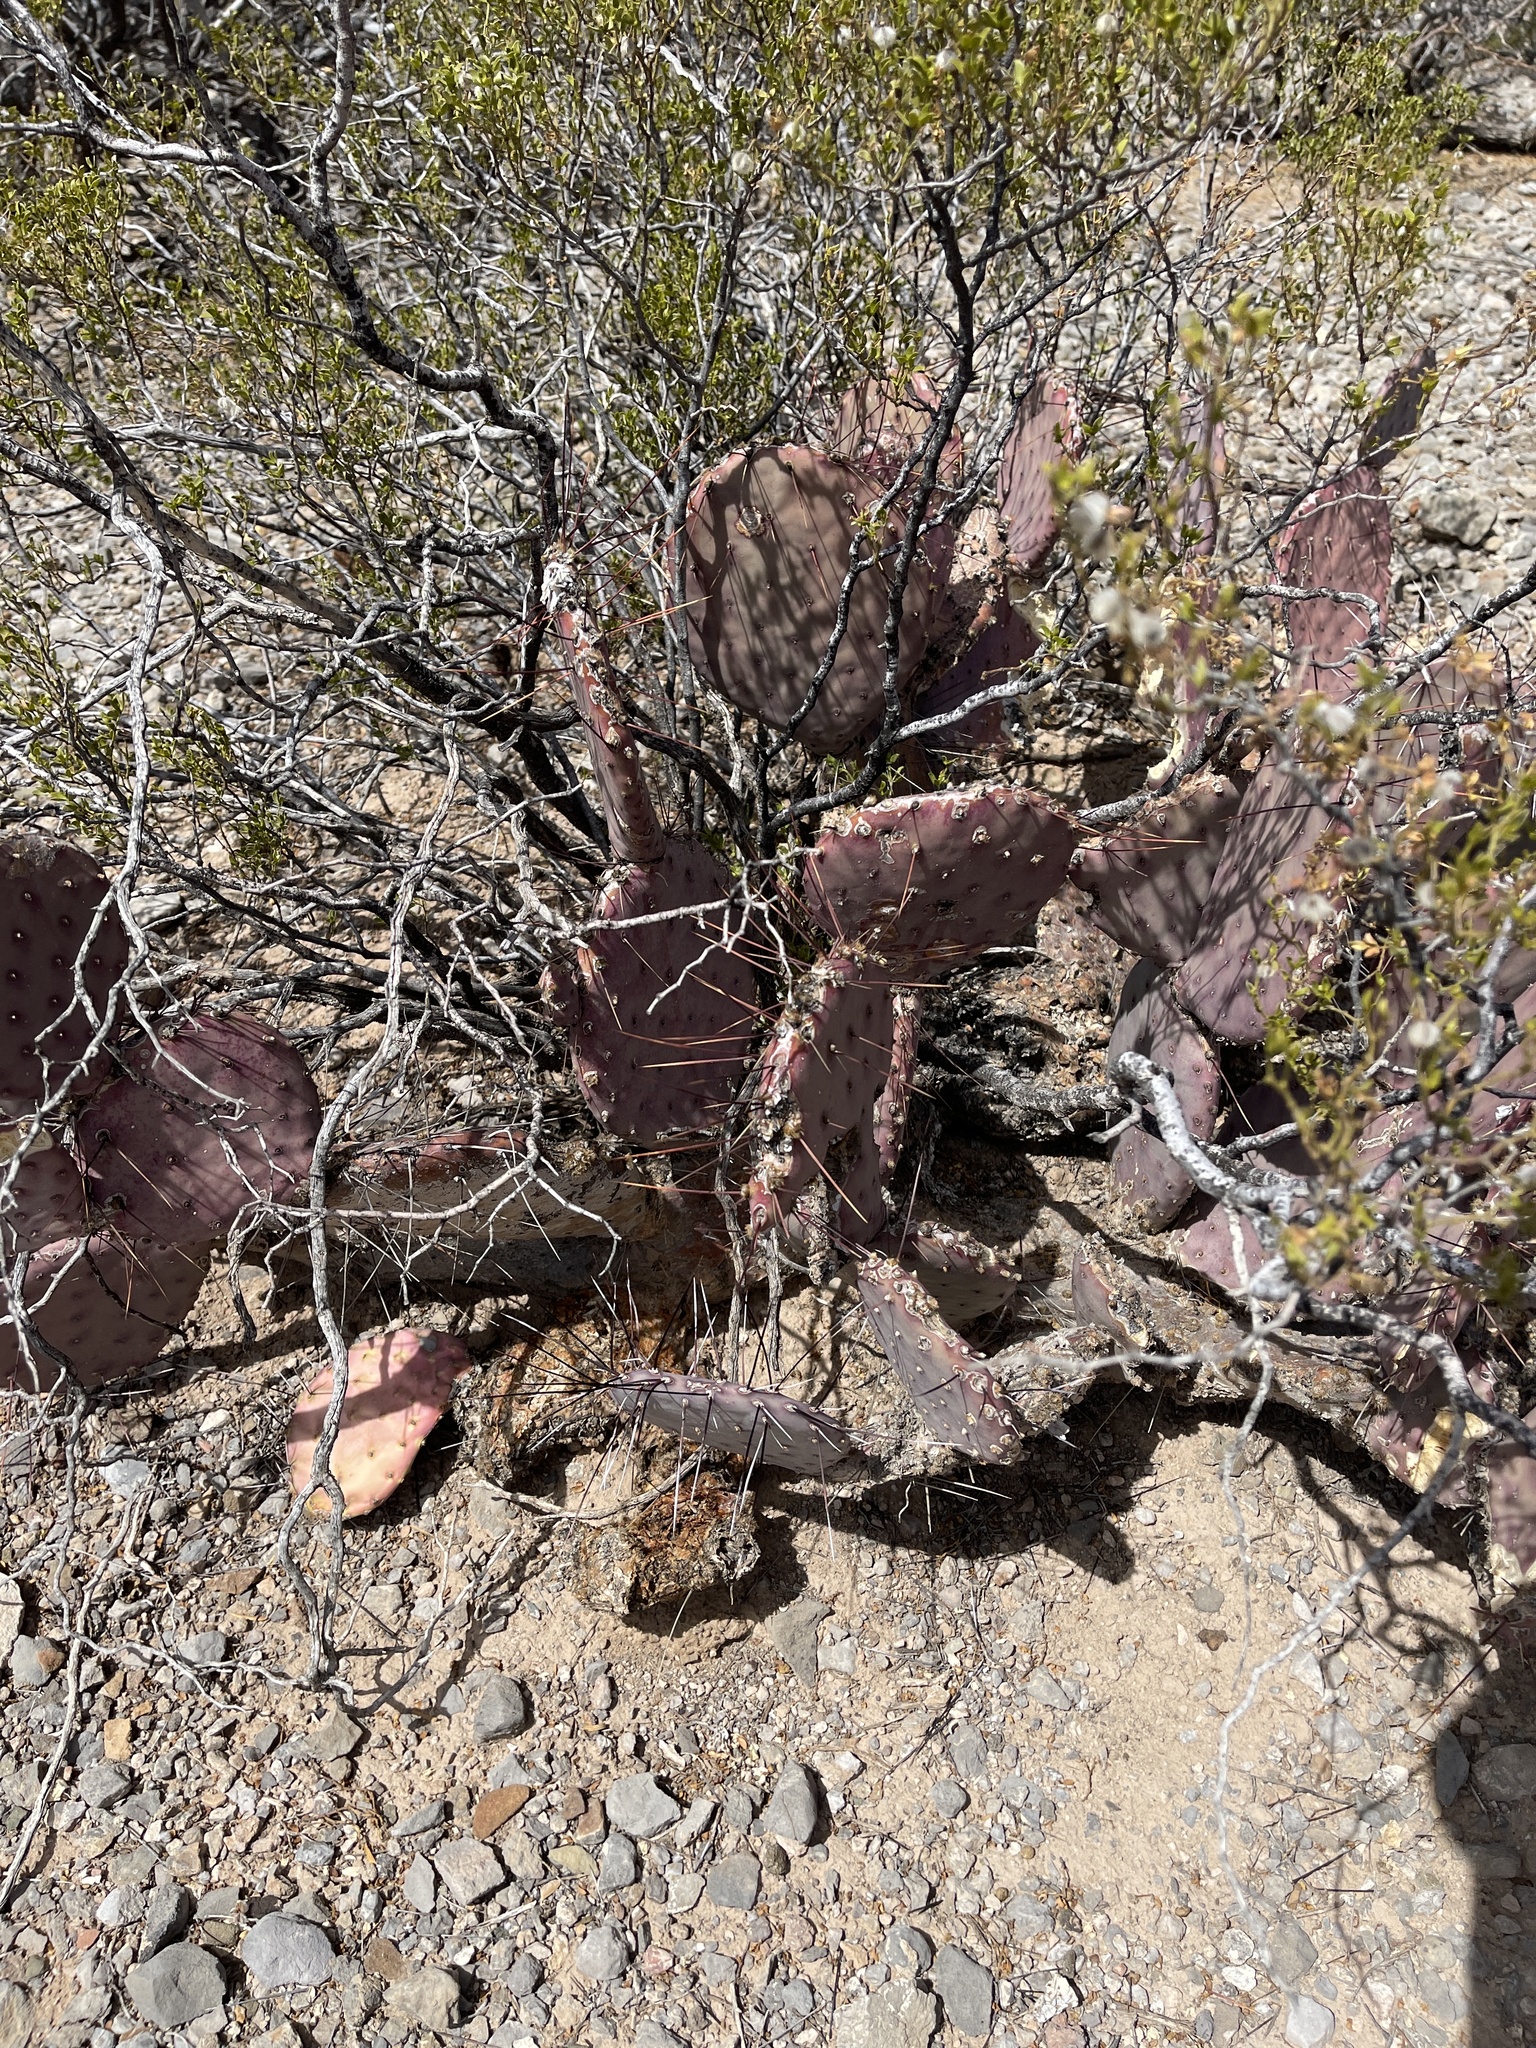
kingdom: Plantae
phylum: Tracheophyta
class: Magnoliopsida
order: Caryophyllales
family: Cactaceae
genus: Opuntia
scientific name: Opuntia macrocentra
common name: Purple prickly-pear
